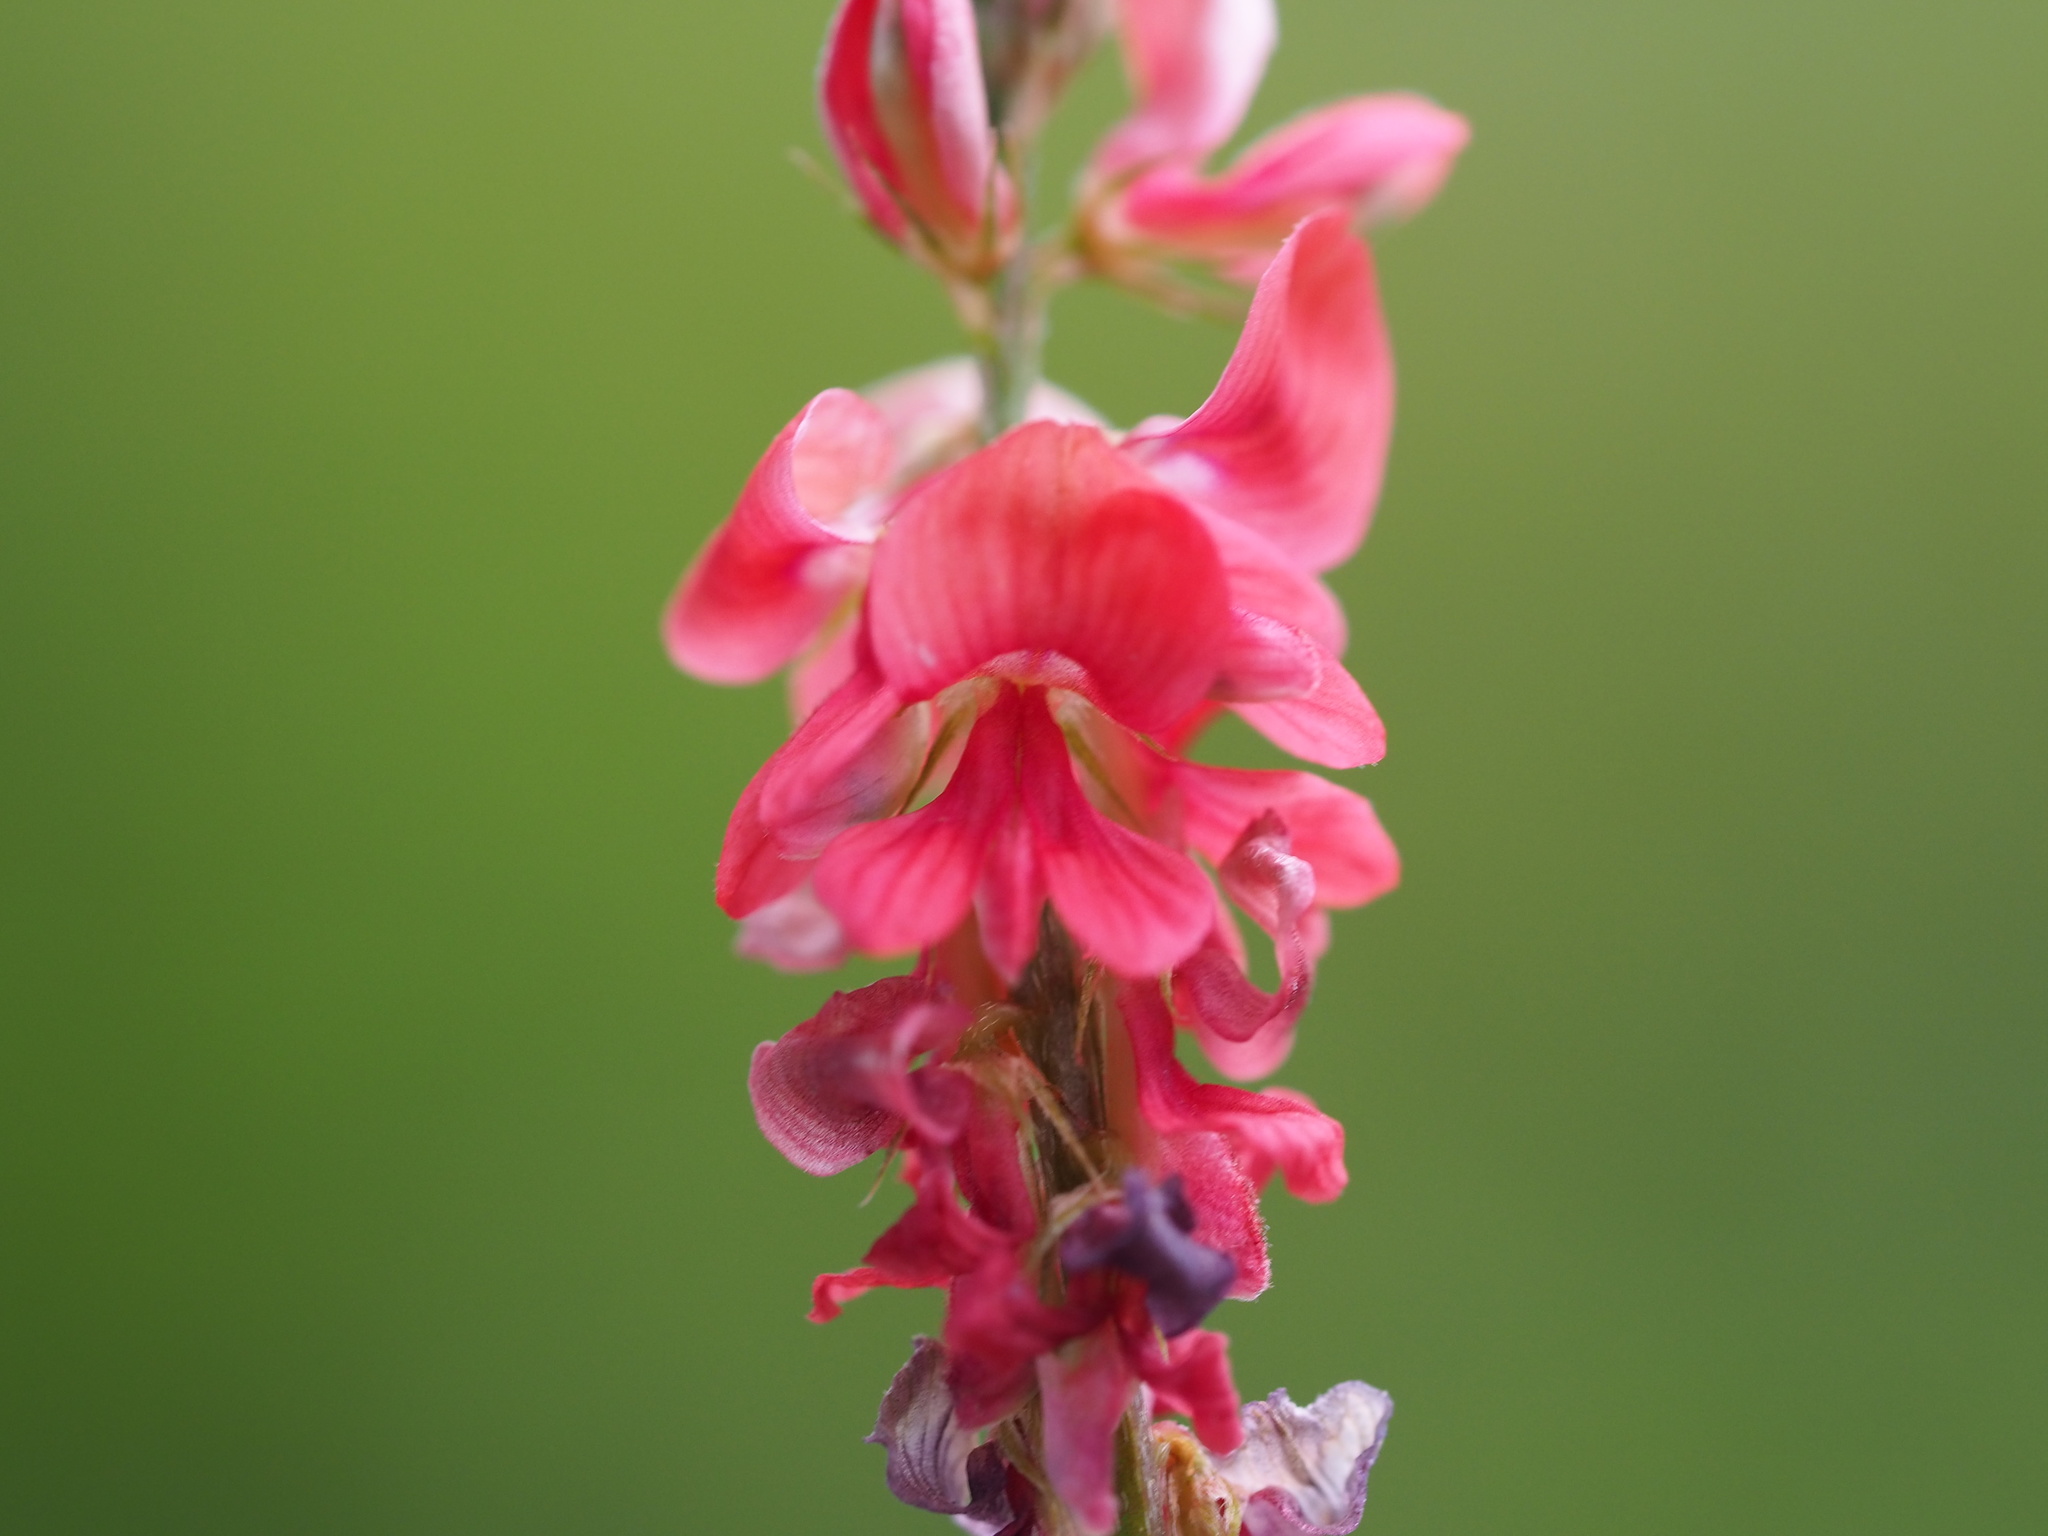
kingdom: Plantae
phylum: Tracheophyta
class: Magnoliopsida
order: Fabales
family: Fabaceae
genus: Indigofera
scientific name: Indigofera spicata
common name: Creeping indigo
